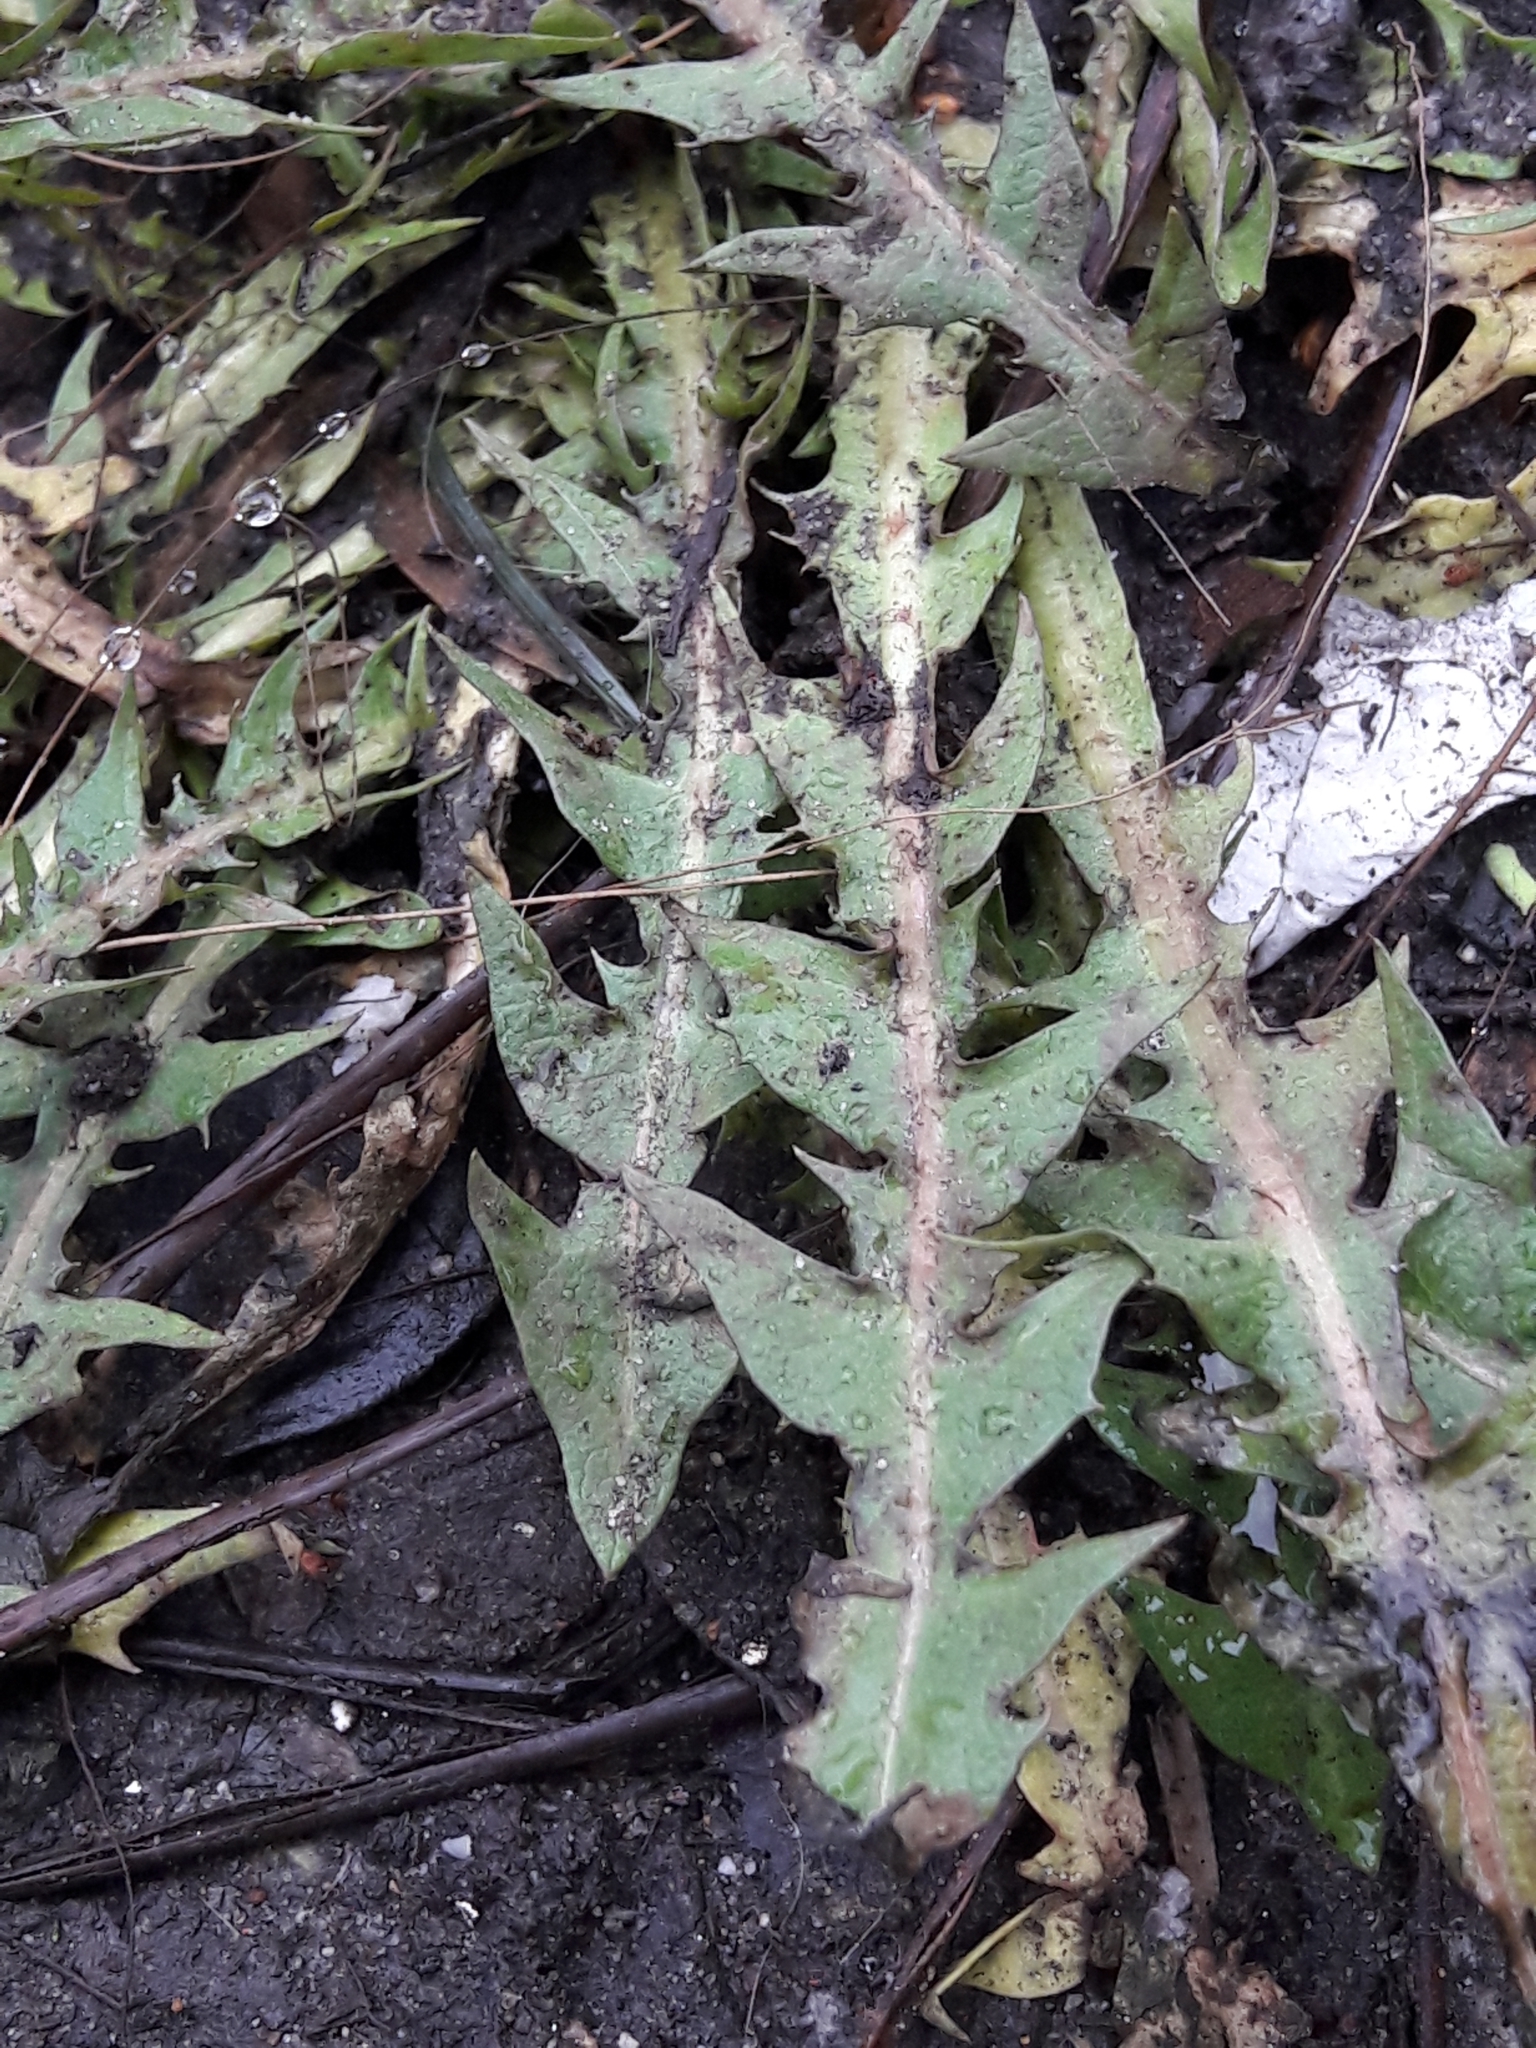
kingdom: Plantae
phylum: Tracheophyta
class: Magnoliopsida
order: Asterales
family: Asteraceae
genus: Taraxacum
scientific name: Taraxacum officinale
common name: Common dandelion
